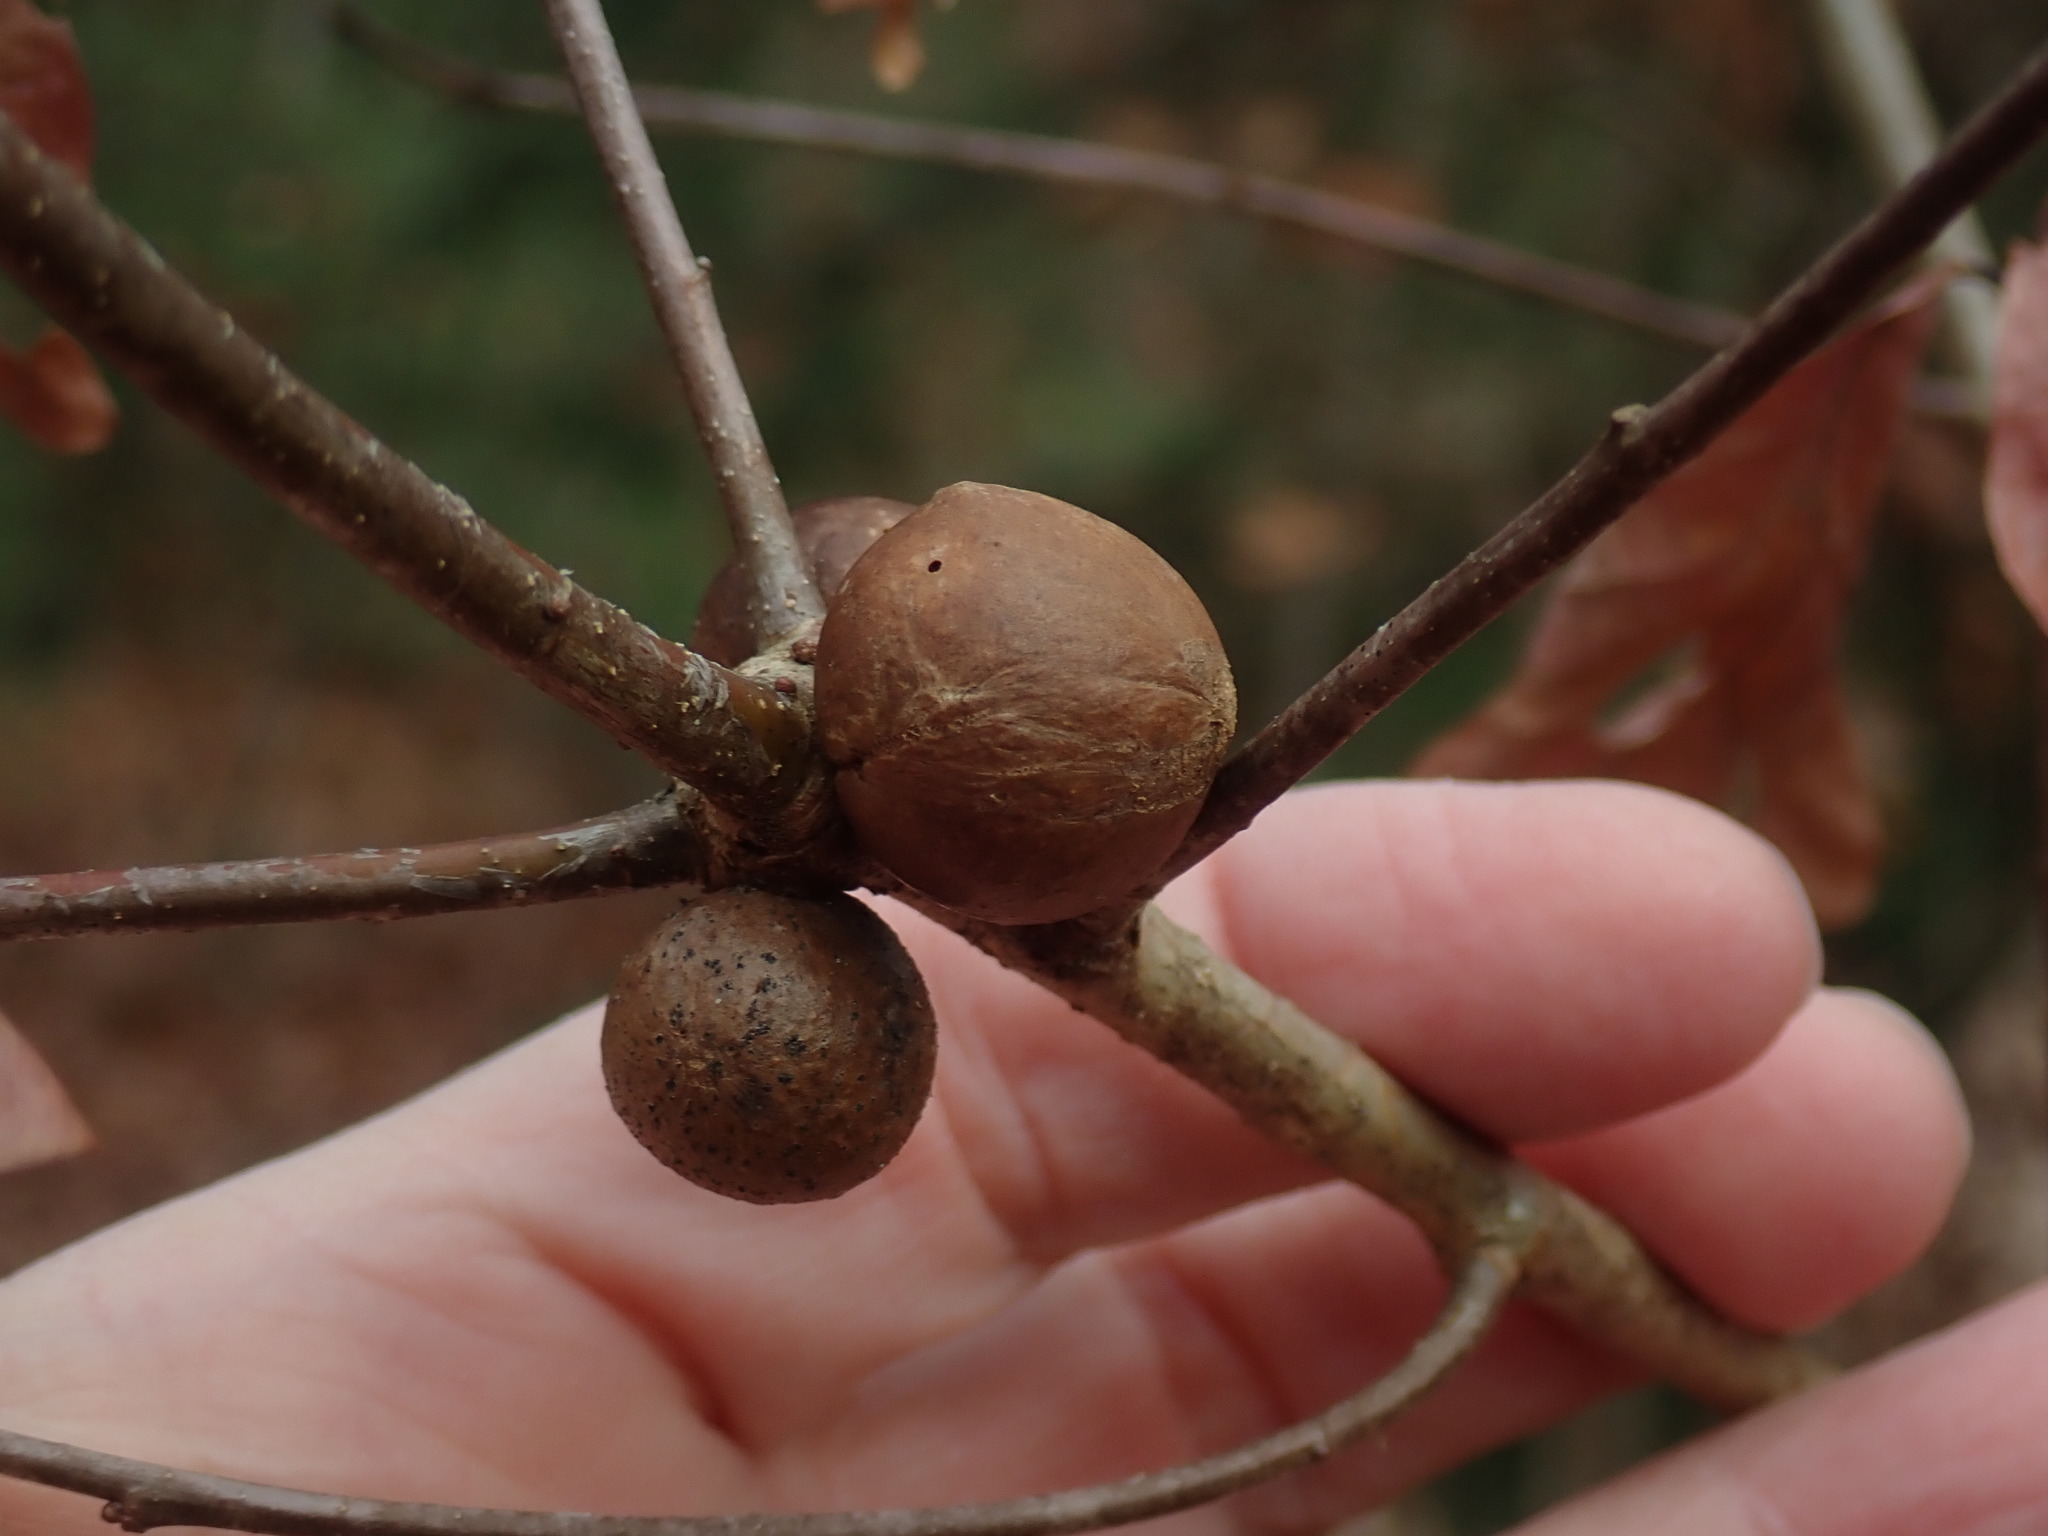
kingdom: Animalia
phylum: Arthropoda
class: Insecta
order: Hymenoptera
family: Cynipidae
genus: Disholcaspis
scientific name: Disholcaspis quercusglobulus
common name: Round bullet gall wasp
